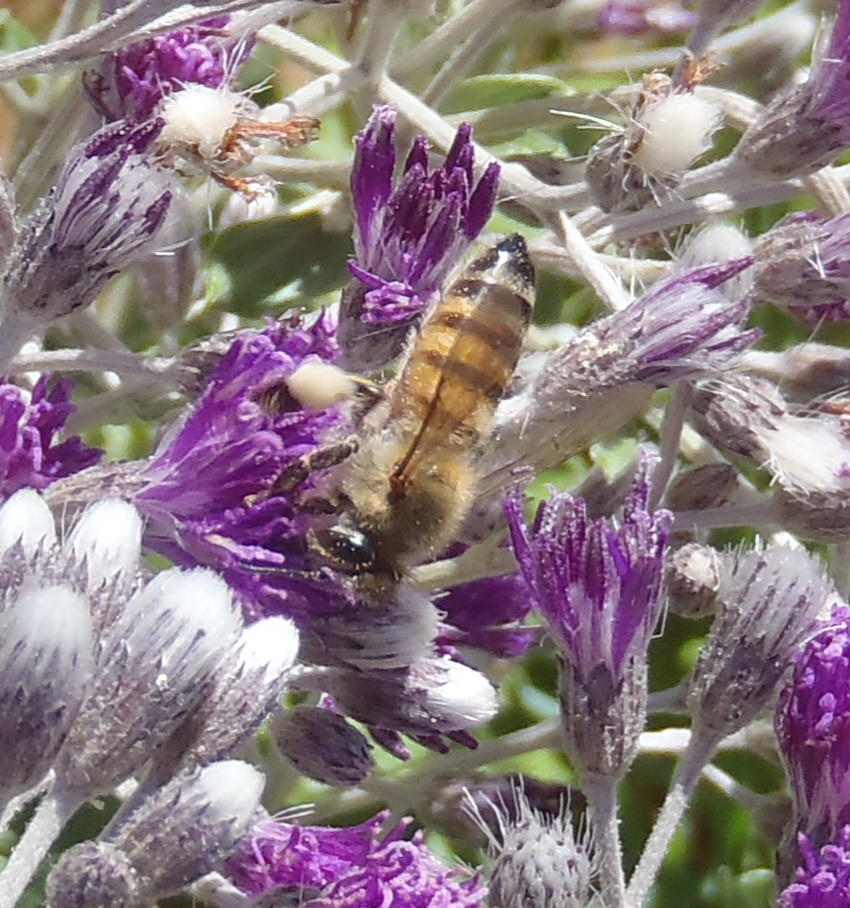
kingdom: Animalia
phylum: Arthropoda
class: Insecta
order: Hymenoptera
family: Apidae
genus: Apis
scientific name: Apis mellifera
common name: Honey bee
